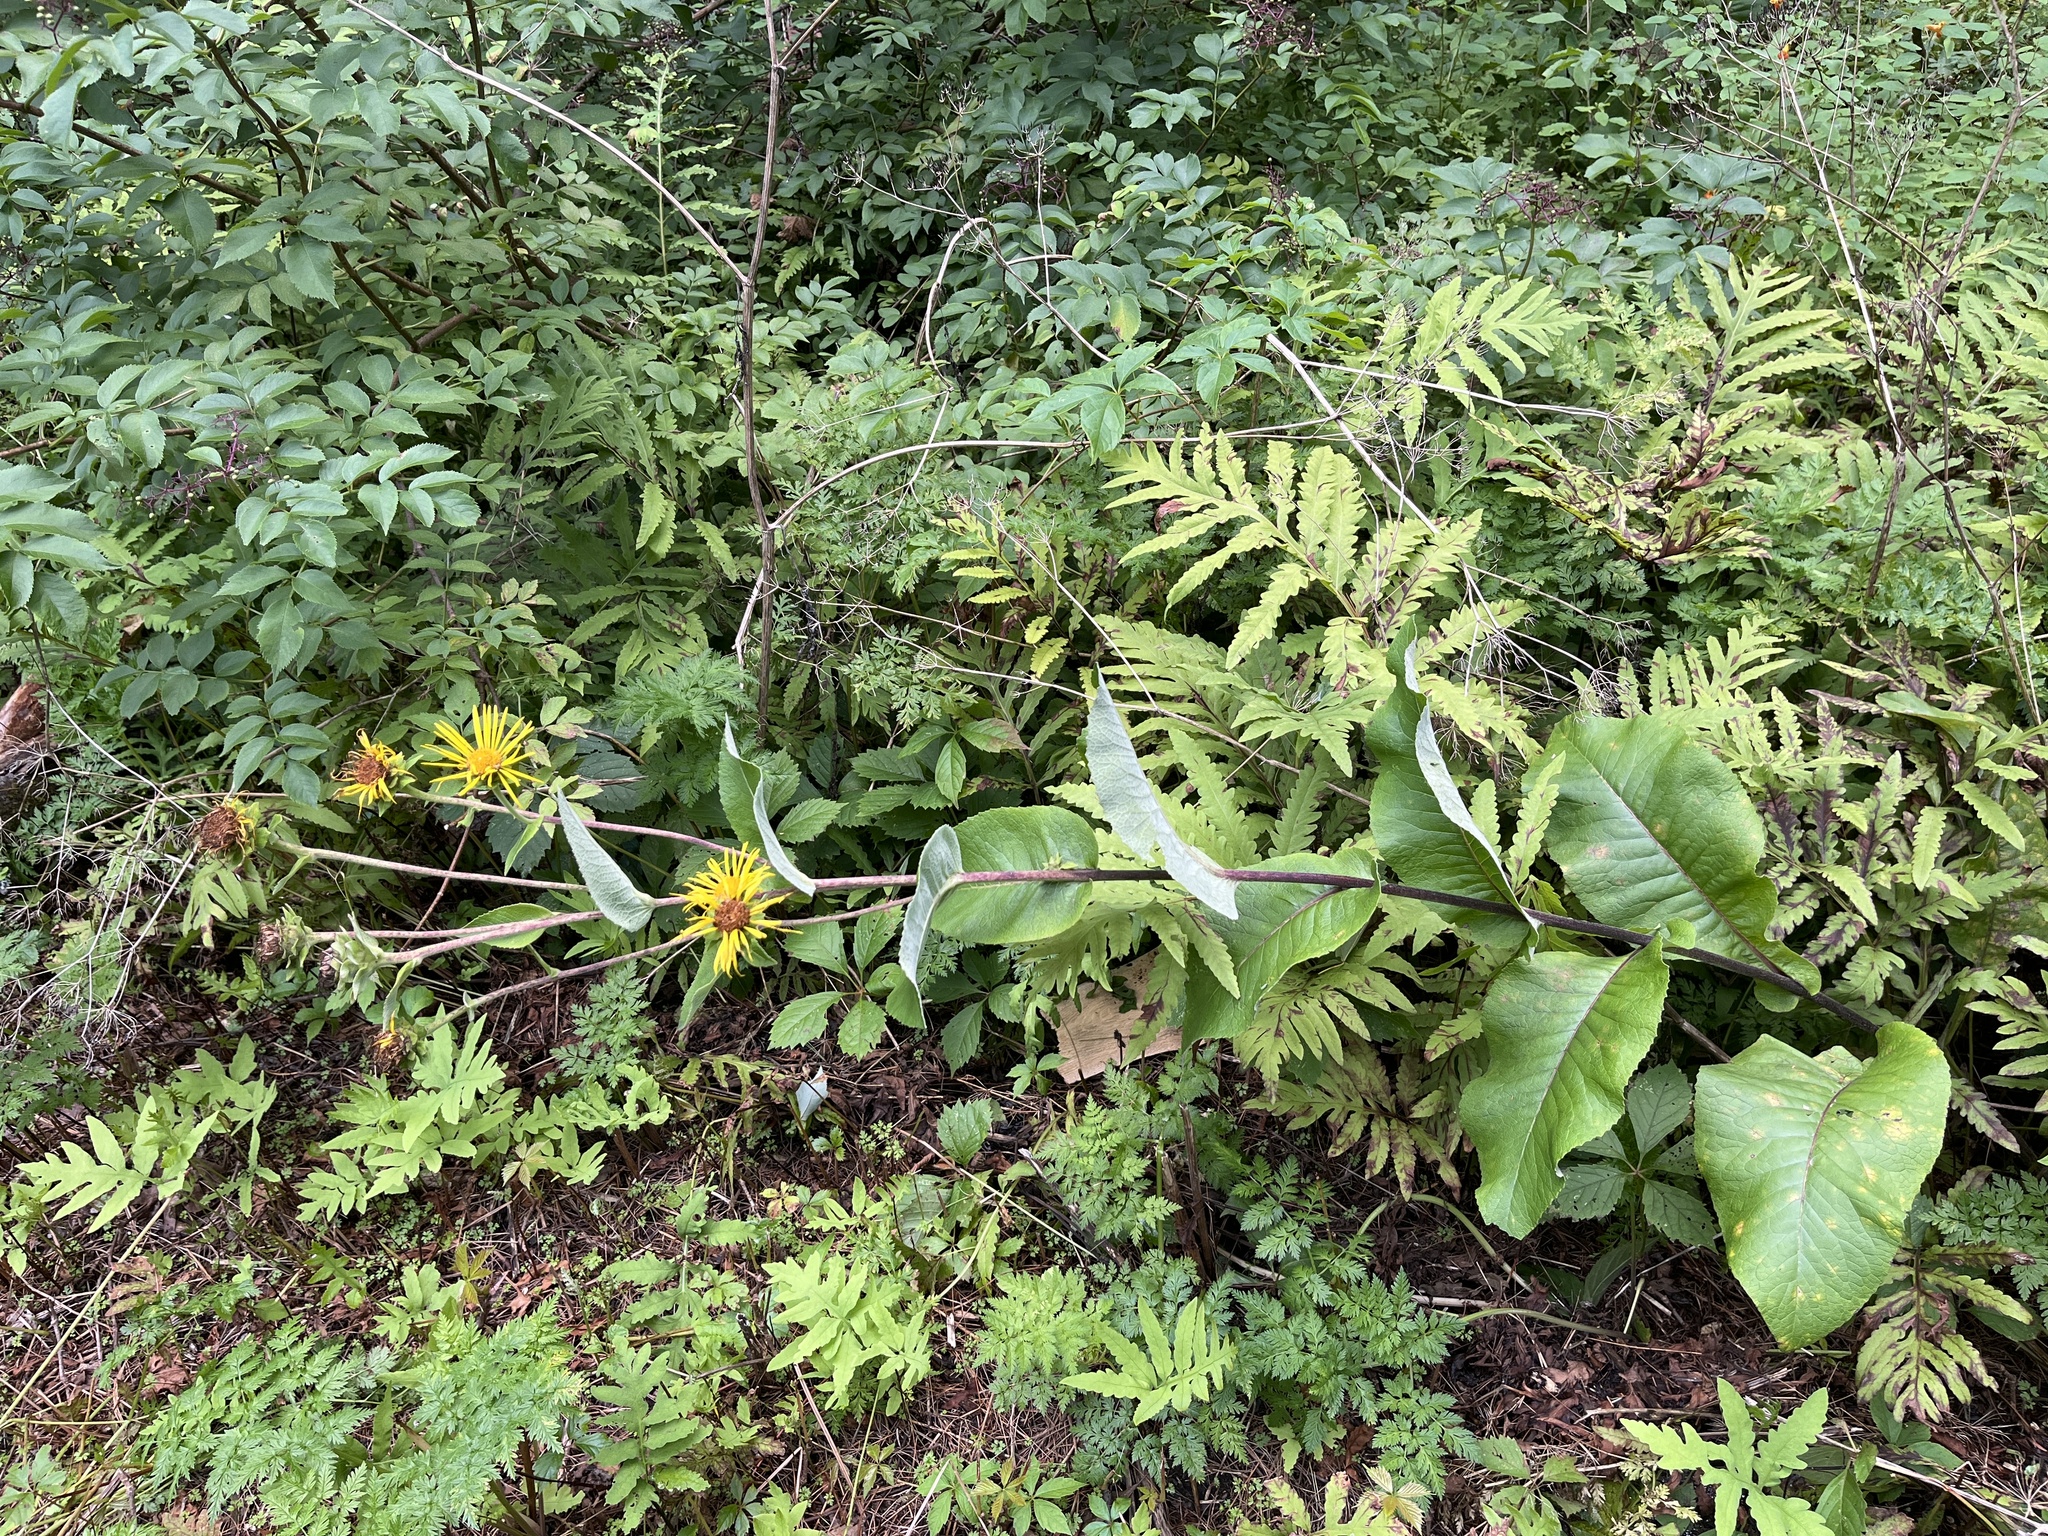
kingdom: Plantae
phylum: Tracheophyta
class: Magnoliopsida
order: Asterales
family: Asteraceae
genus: Inula
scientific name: Inula helenium
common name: Elecampane
